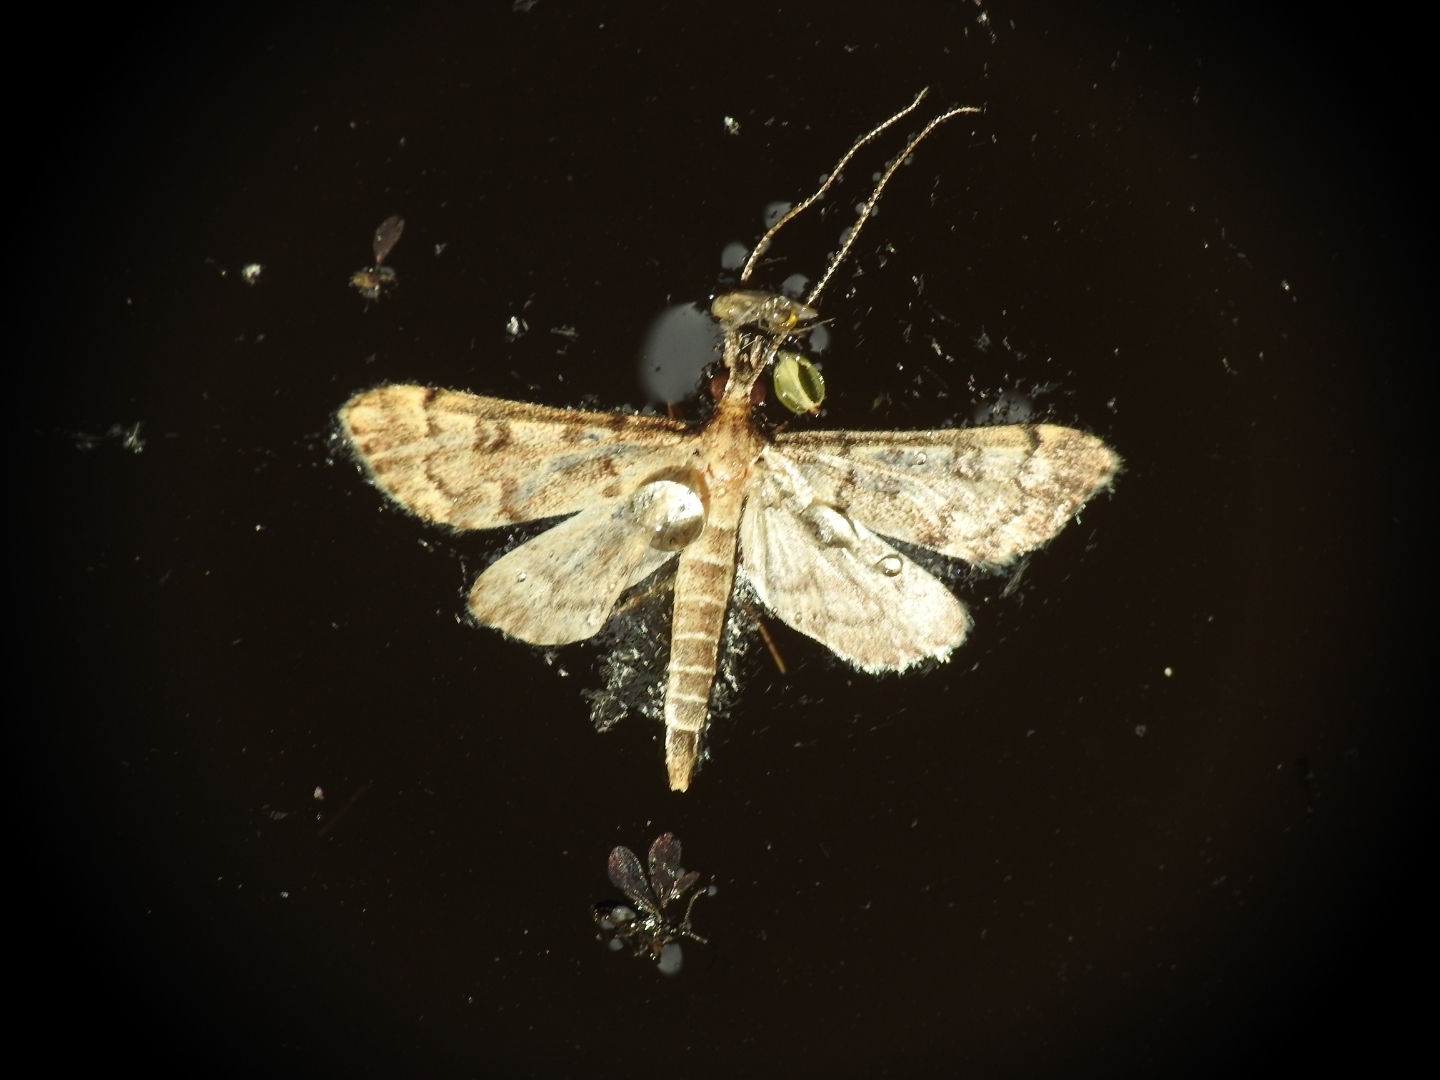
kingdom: Animalia
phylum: Arthropoda
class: Insecta
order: Lepidoptera
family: Crambidae
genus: Stenia
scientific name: Stenia Dolicharthria bruguieralis
